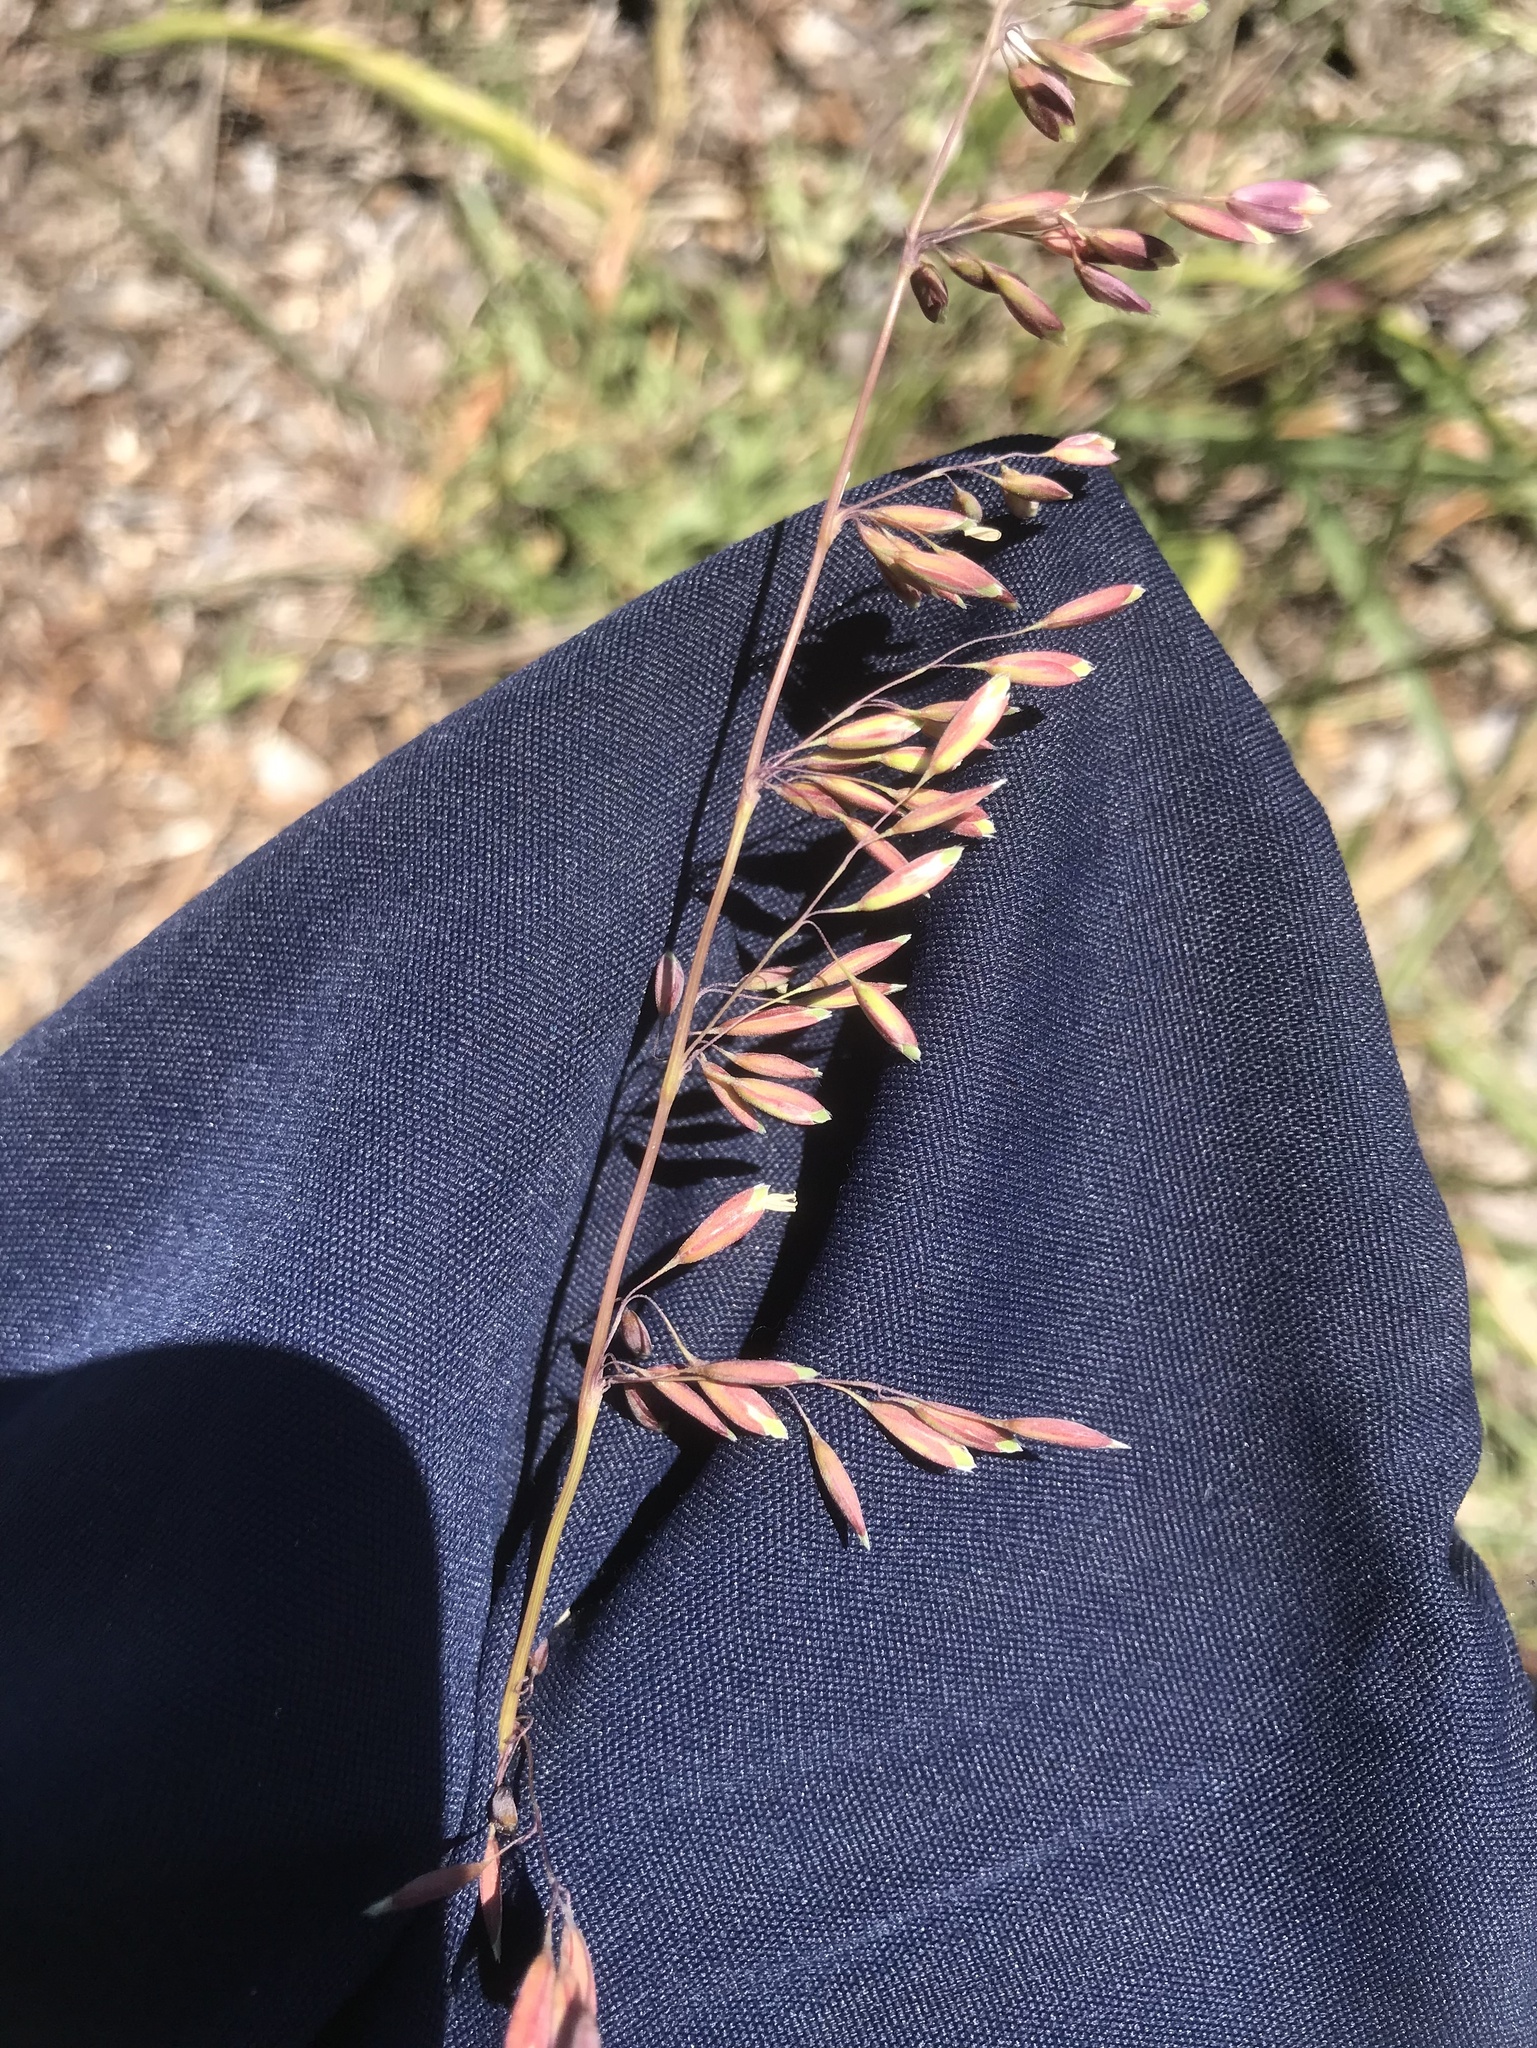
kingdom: Plantae
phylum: Tracheophyta
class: Liliopsida
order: Poales
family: Poaceae
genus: Ehrharta
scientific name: Ehrharta calycina
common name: Perennial veldtgrass
